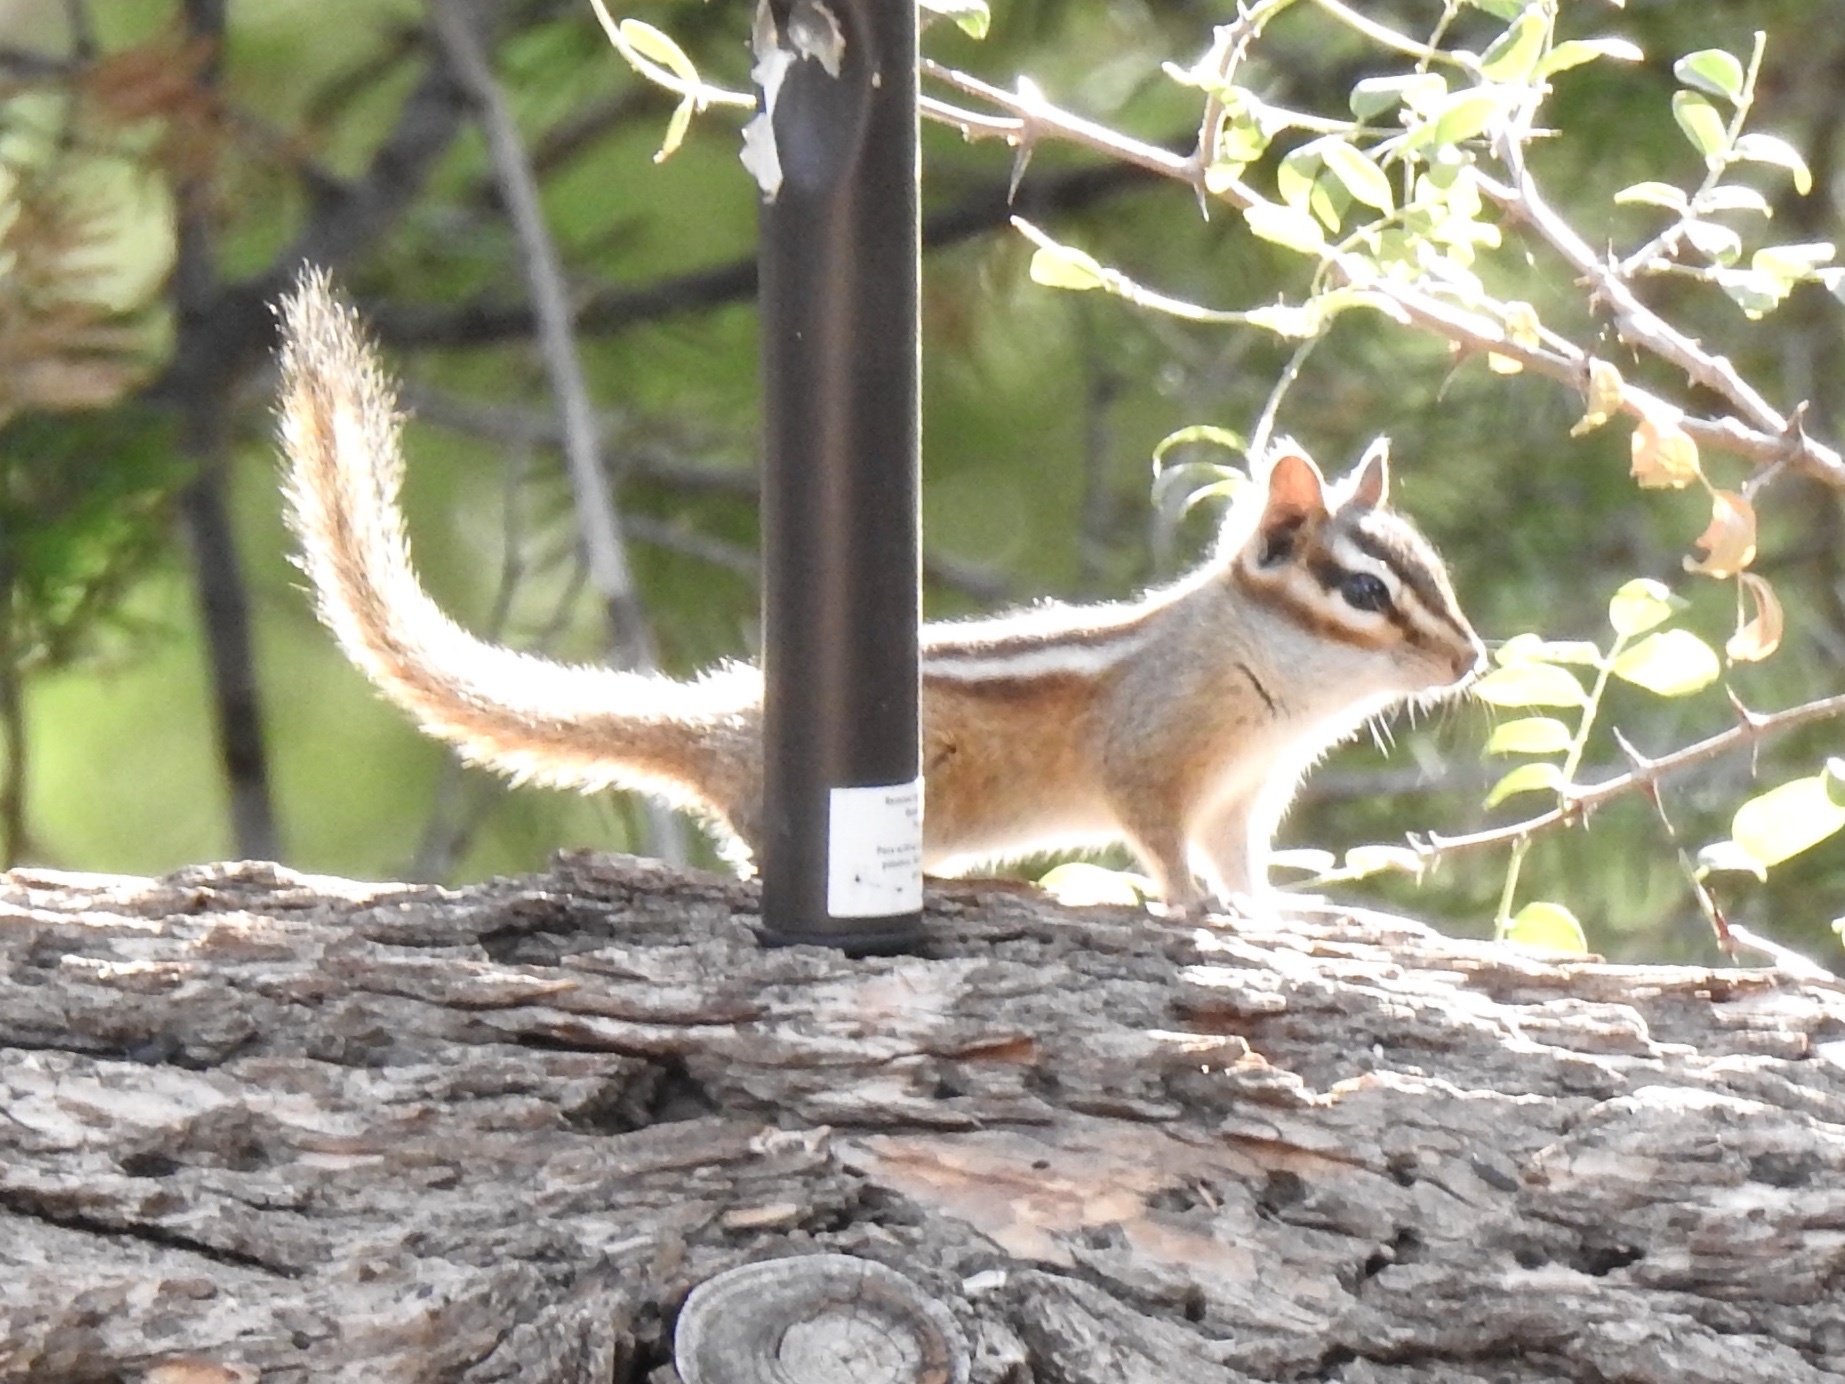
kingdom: Animalia
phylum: Chordata
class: Mammalia
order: Rodentia
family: Sciuridae
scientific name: Sciuridae
